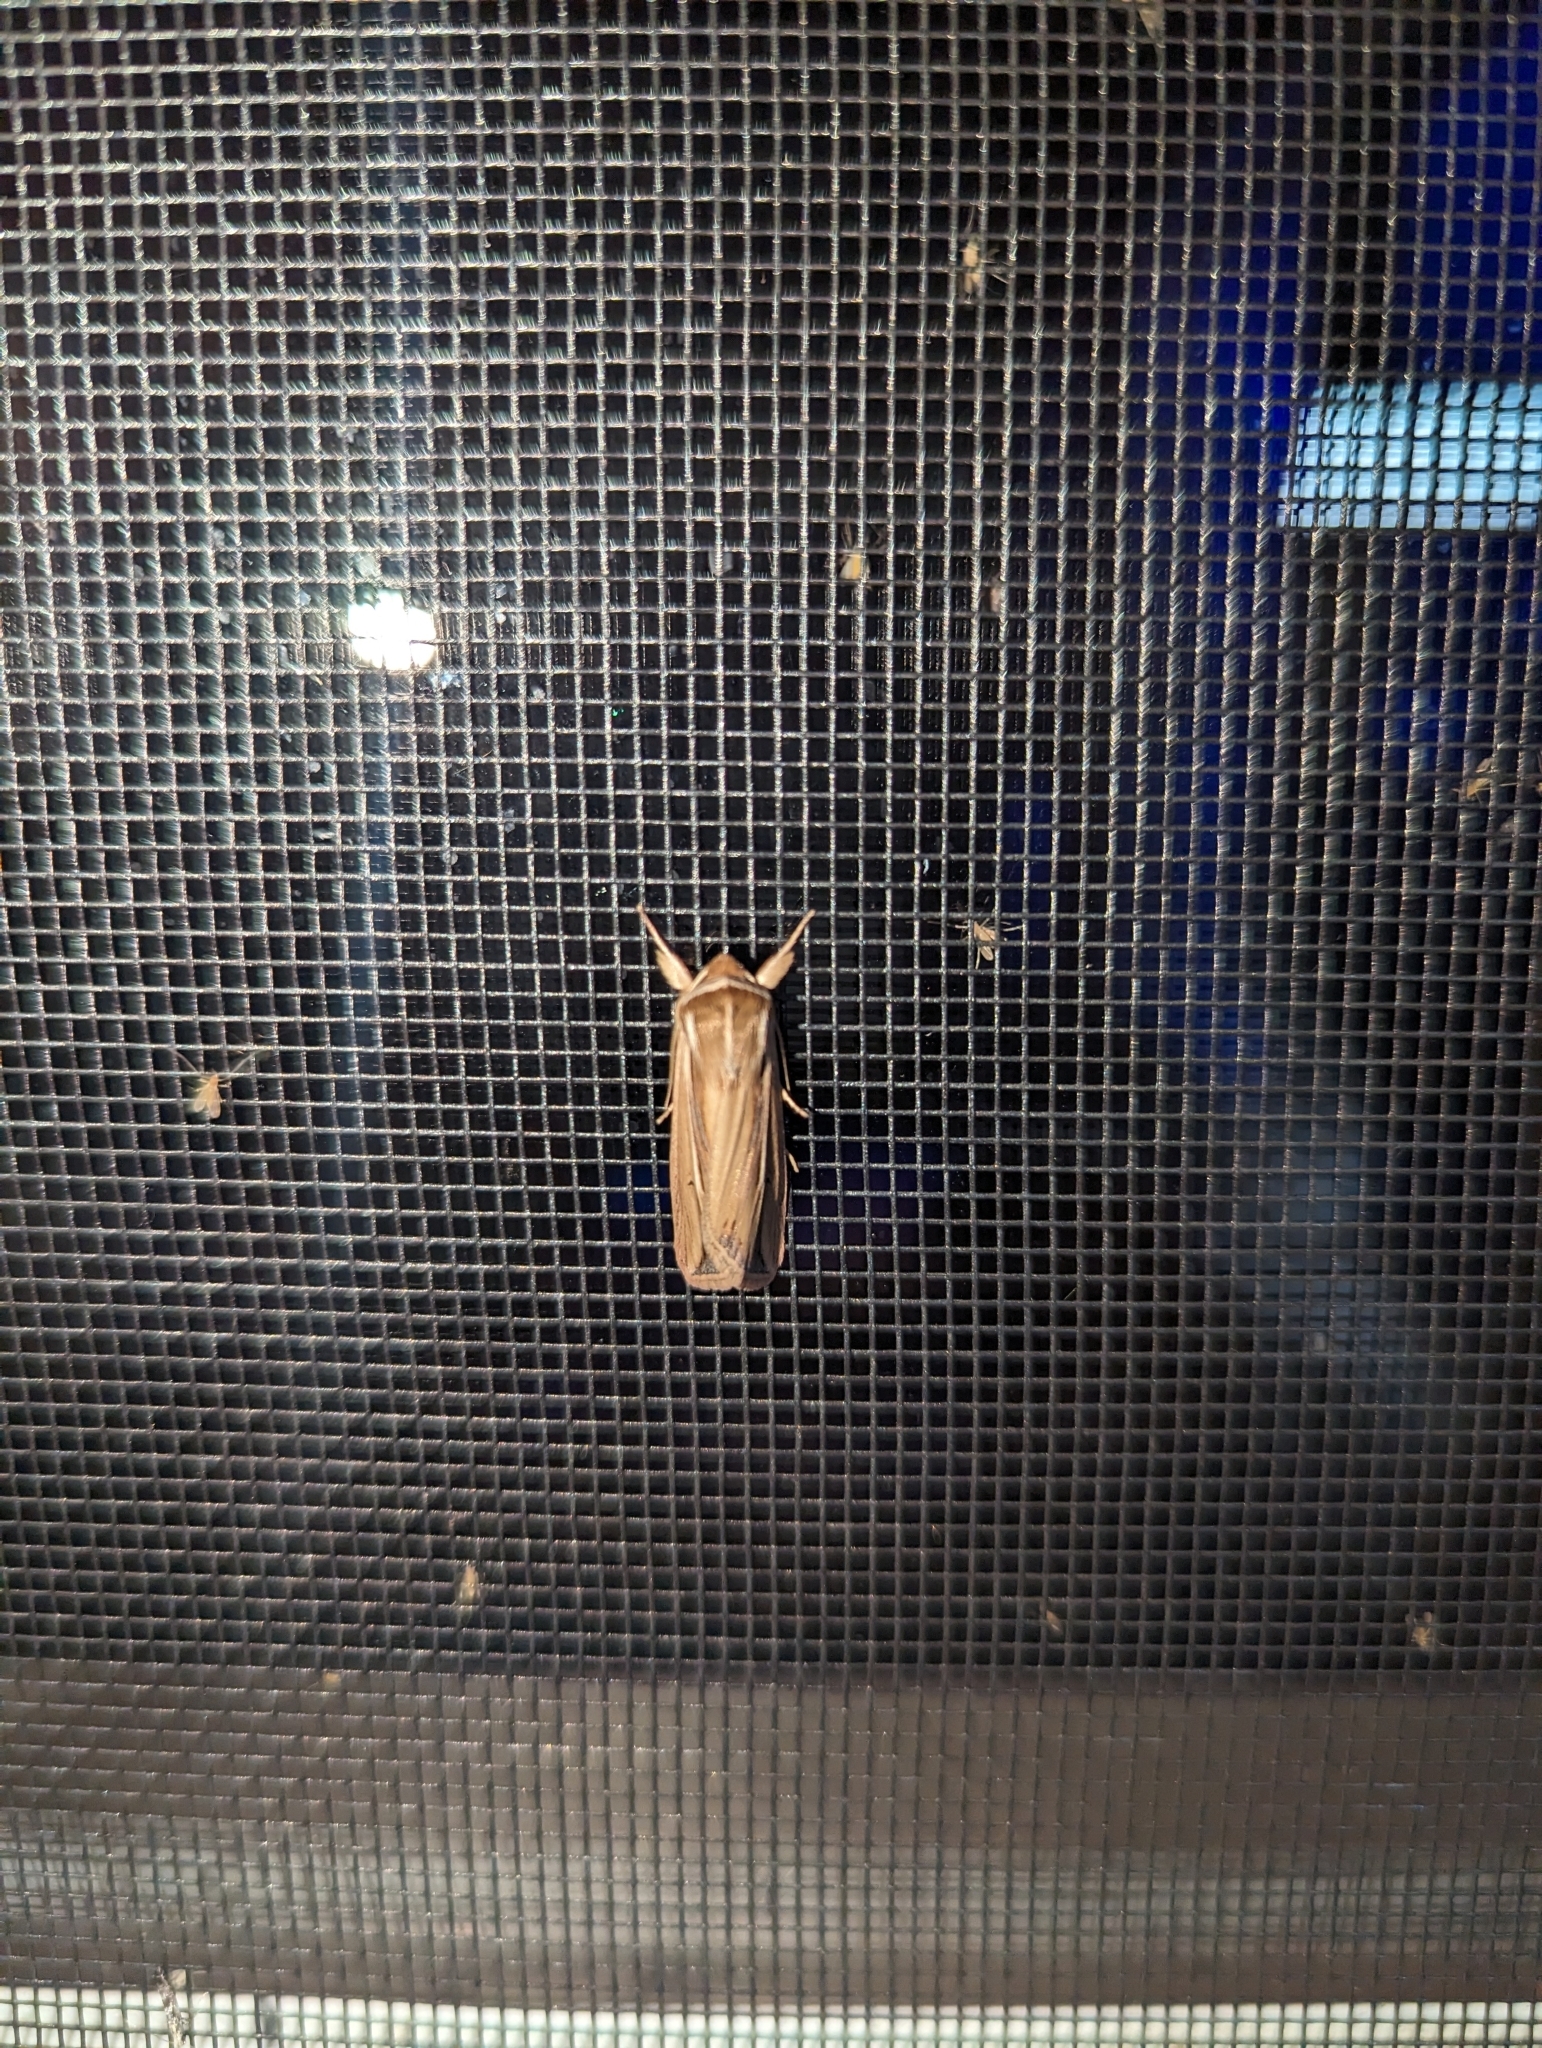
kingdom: Animalia
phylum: Arthropoda
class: Insecta
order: Lepidoptera
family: Noctuidae
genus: Dargida
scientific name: Dargida diffusa
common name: Wheat head armyworm
